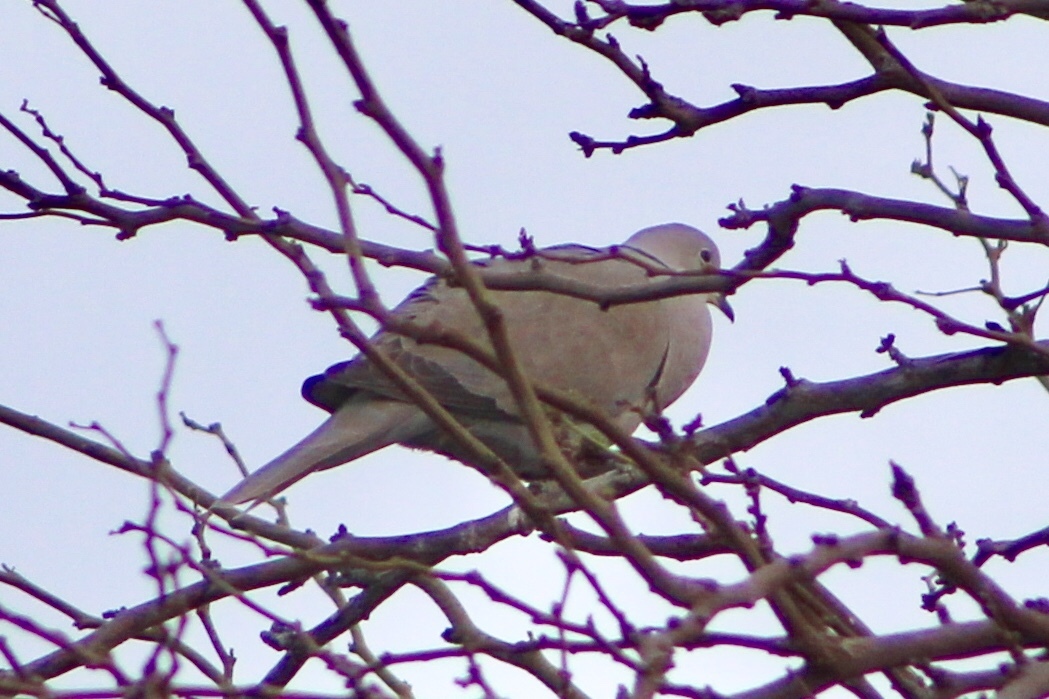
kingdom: Animalia
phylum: Chordata
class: Aves
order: Columbiformes
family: Columbidae
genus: Streptopelia
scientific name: Streptopelia decaocto
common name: Eurasian collared dove
